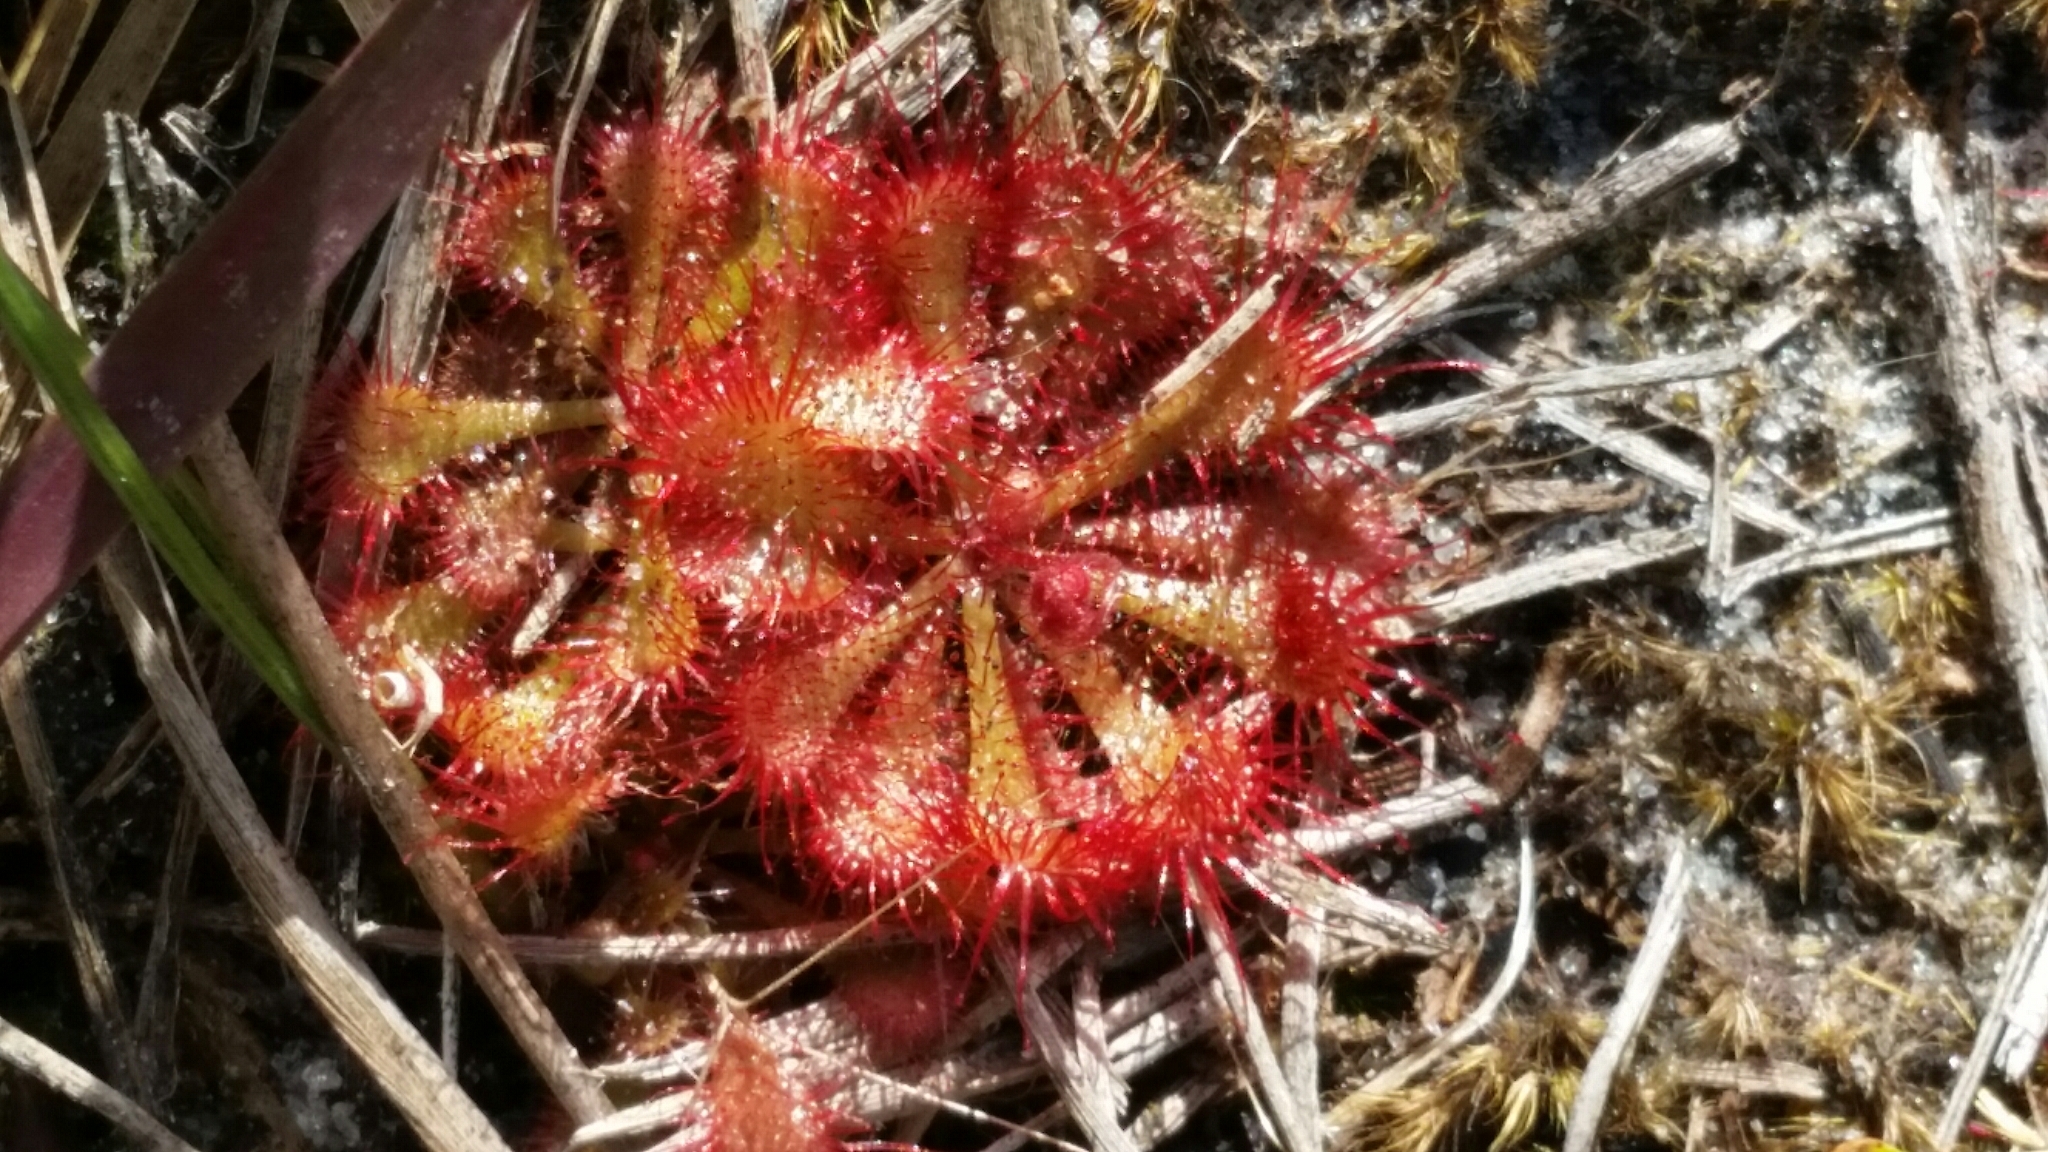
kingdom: Plantae
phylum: Tracheophyta
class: Magnoliopsida
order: Caryophyllales
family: Droseraceae
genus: Drosera
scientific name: Drosera brevifolia
